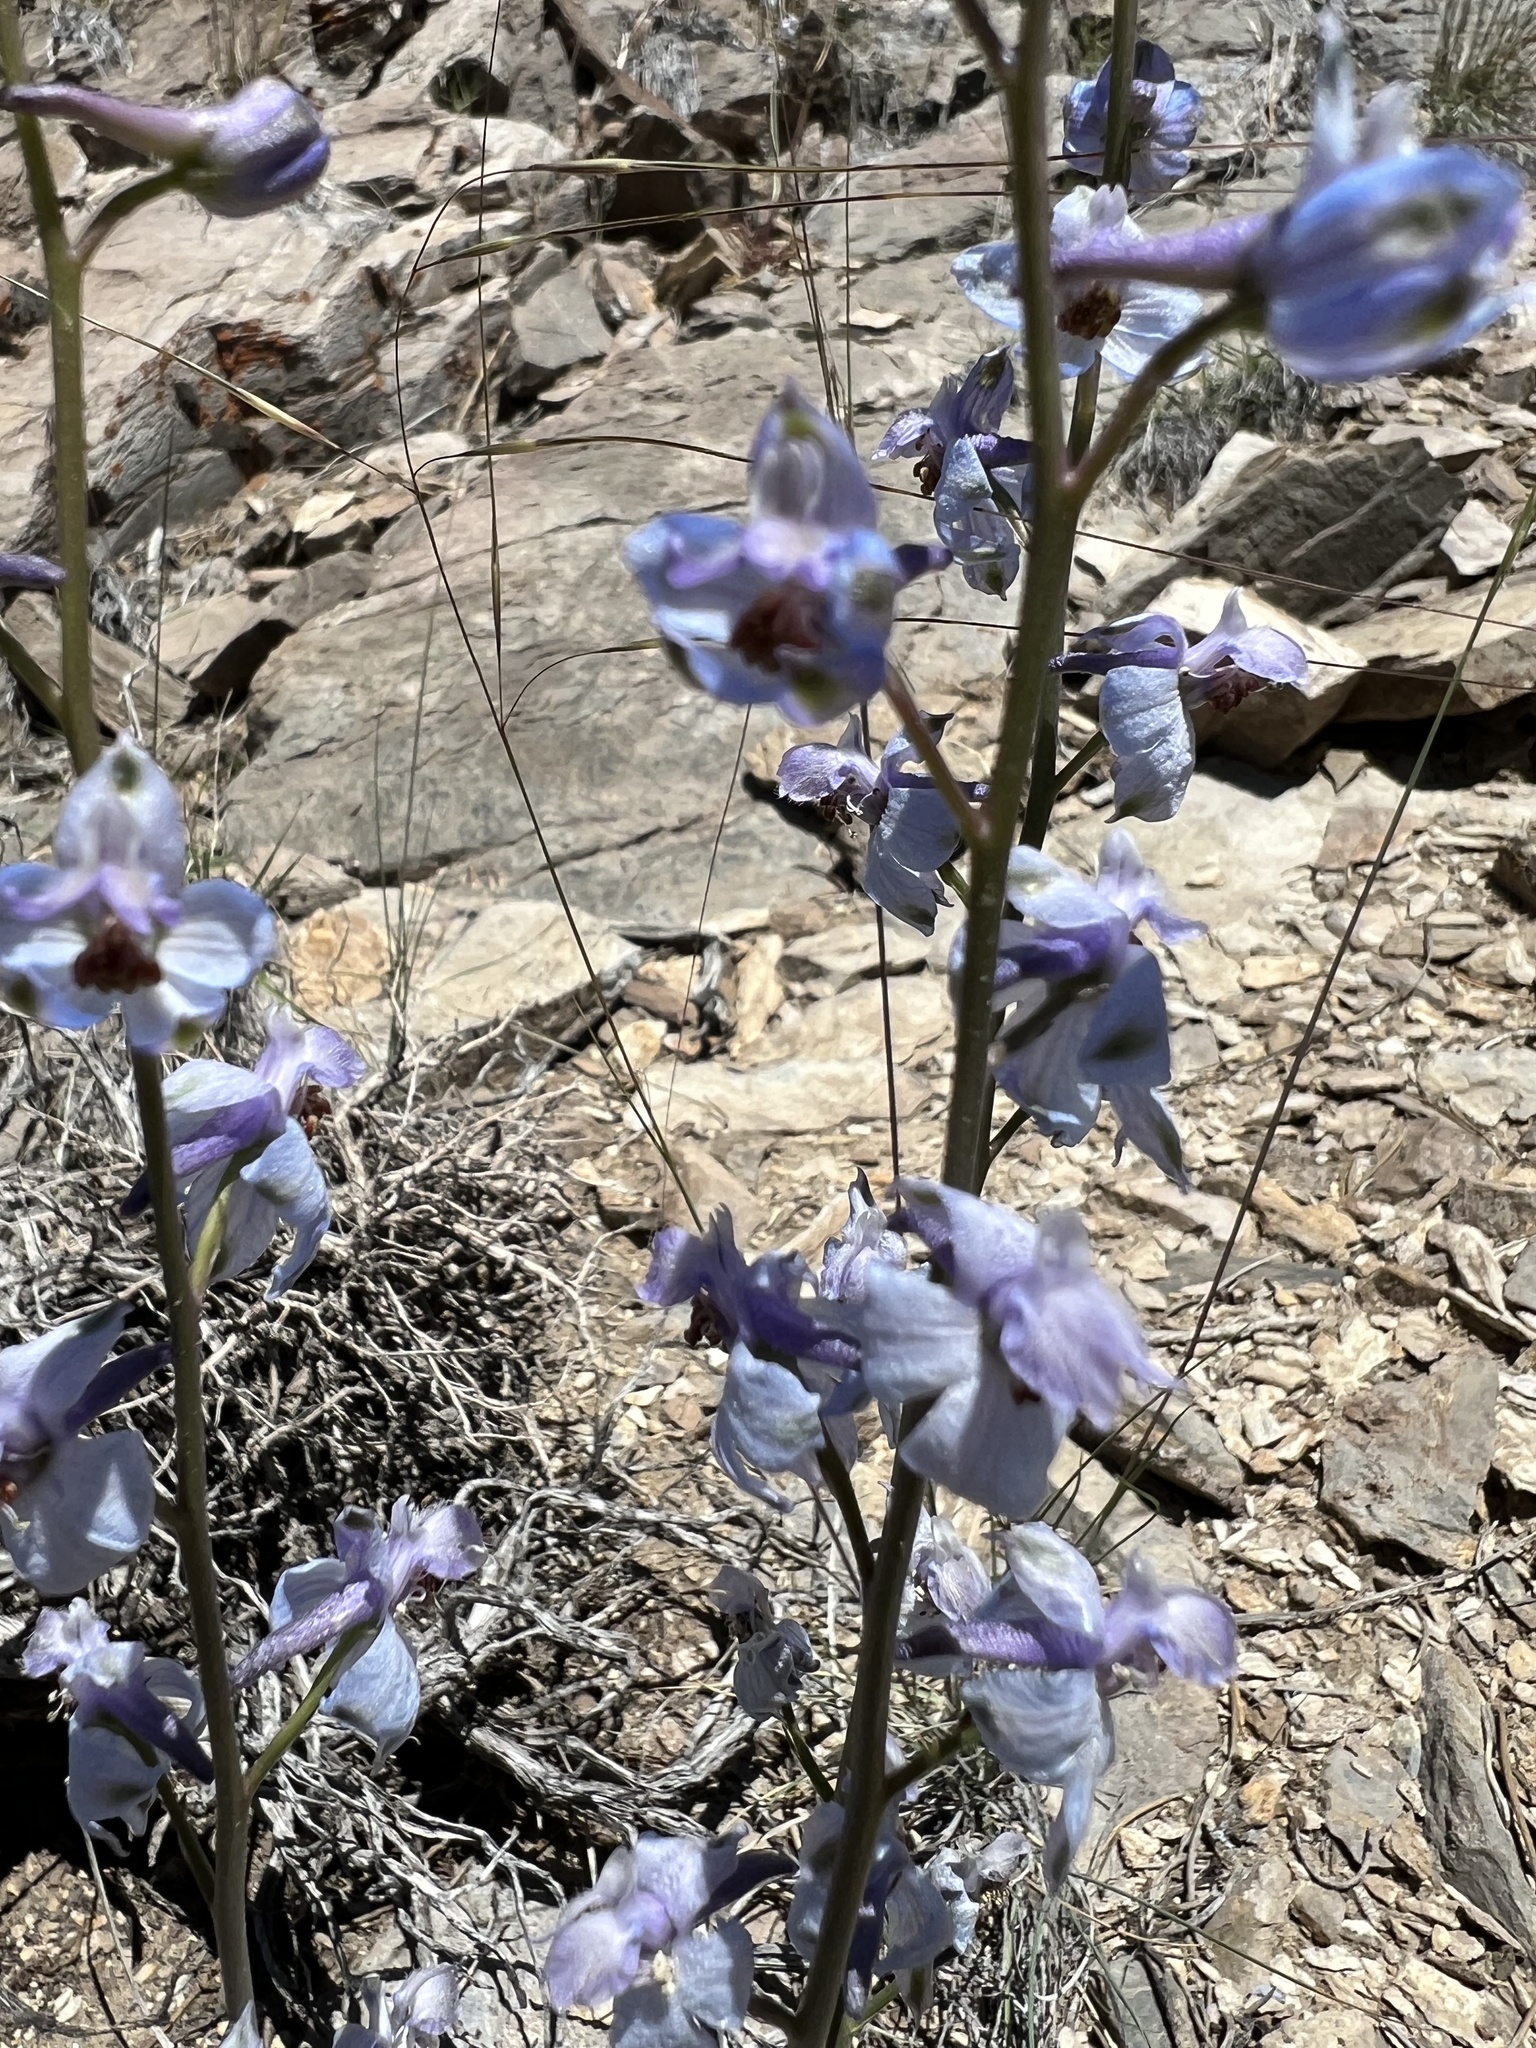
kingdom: Plantae
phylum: Tracheophyta
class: Magnoliopsida
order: Ranunculales
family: Ranunculaceae
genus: Delphinium
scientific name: Delphinium parishii
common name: Apache larkspur
